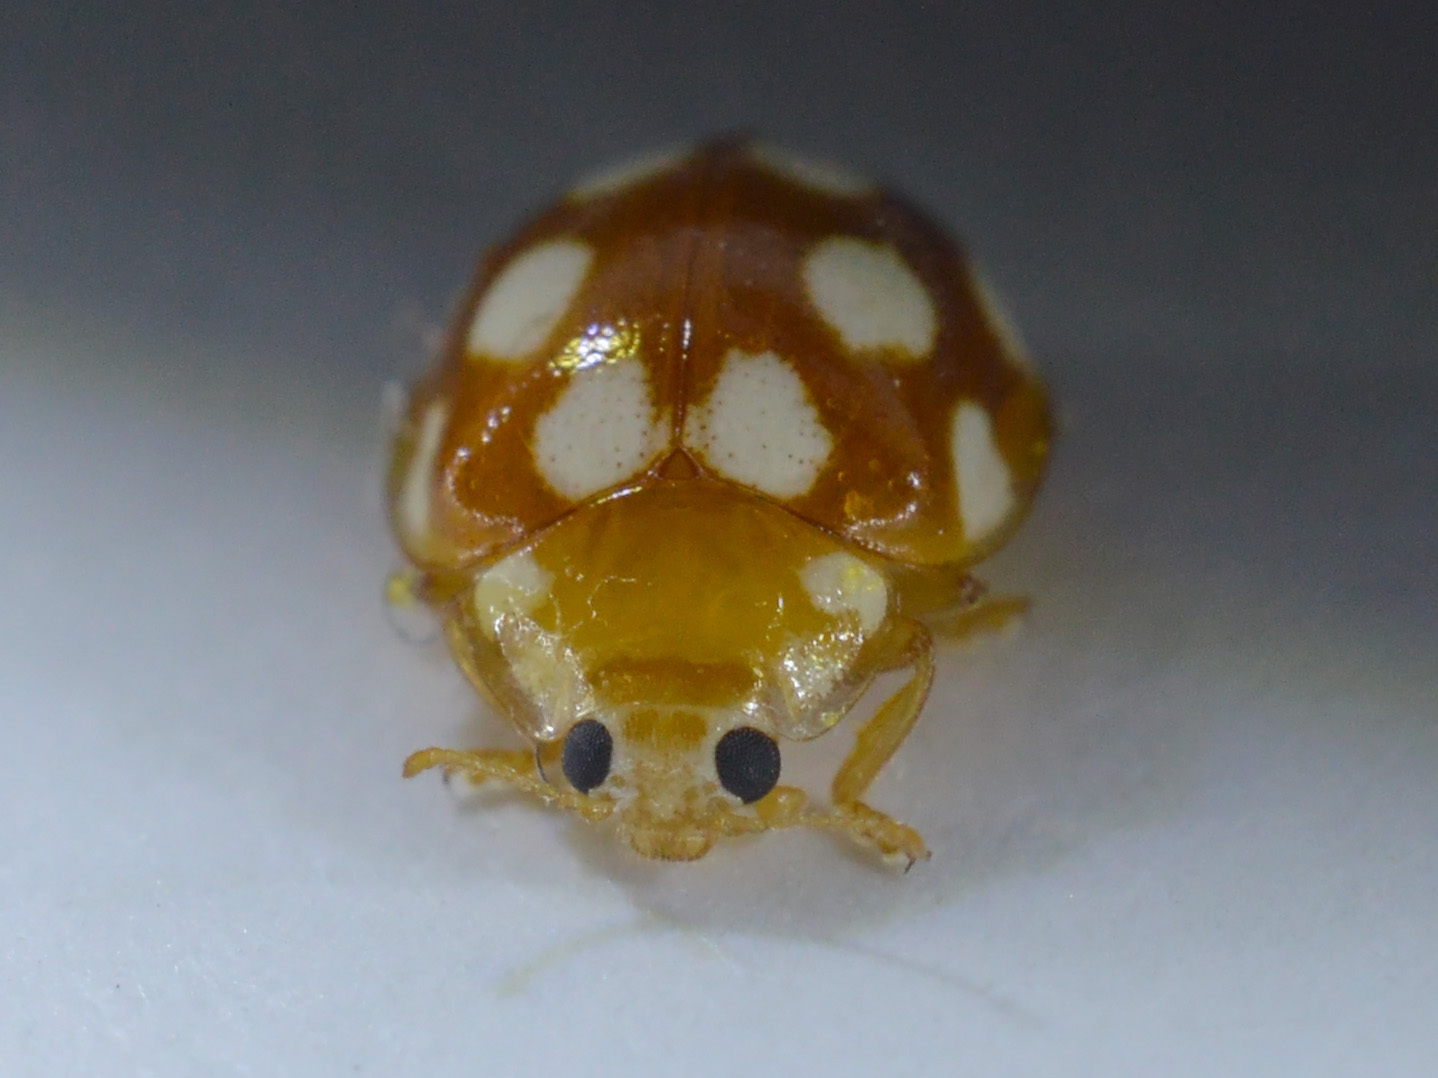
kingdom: Animalia
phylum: Arthropoda
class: Insecta
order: Coleoptera
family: Coccinellidae
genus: Vibidia
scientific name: Vibidia duodecimguttata
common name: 12-spot ladybird
